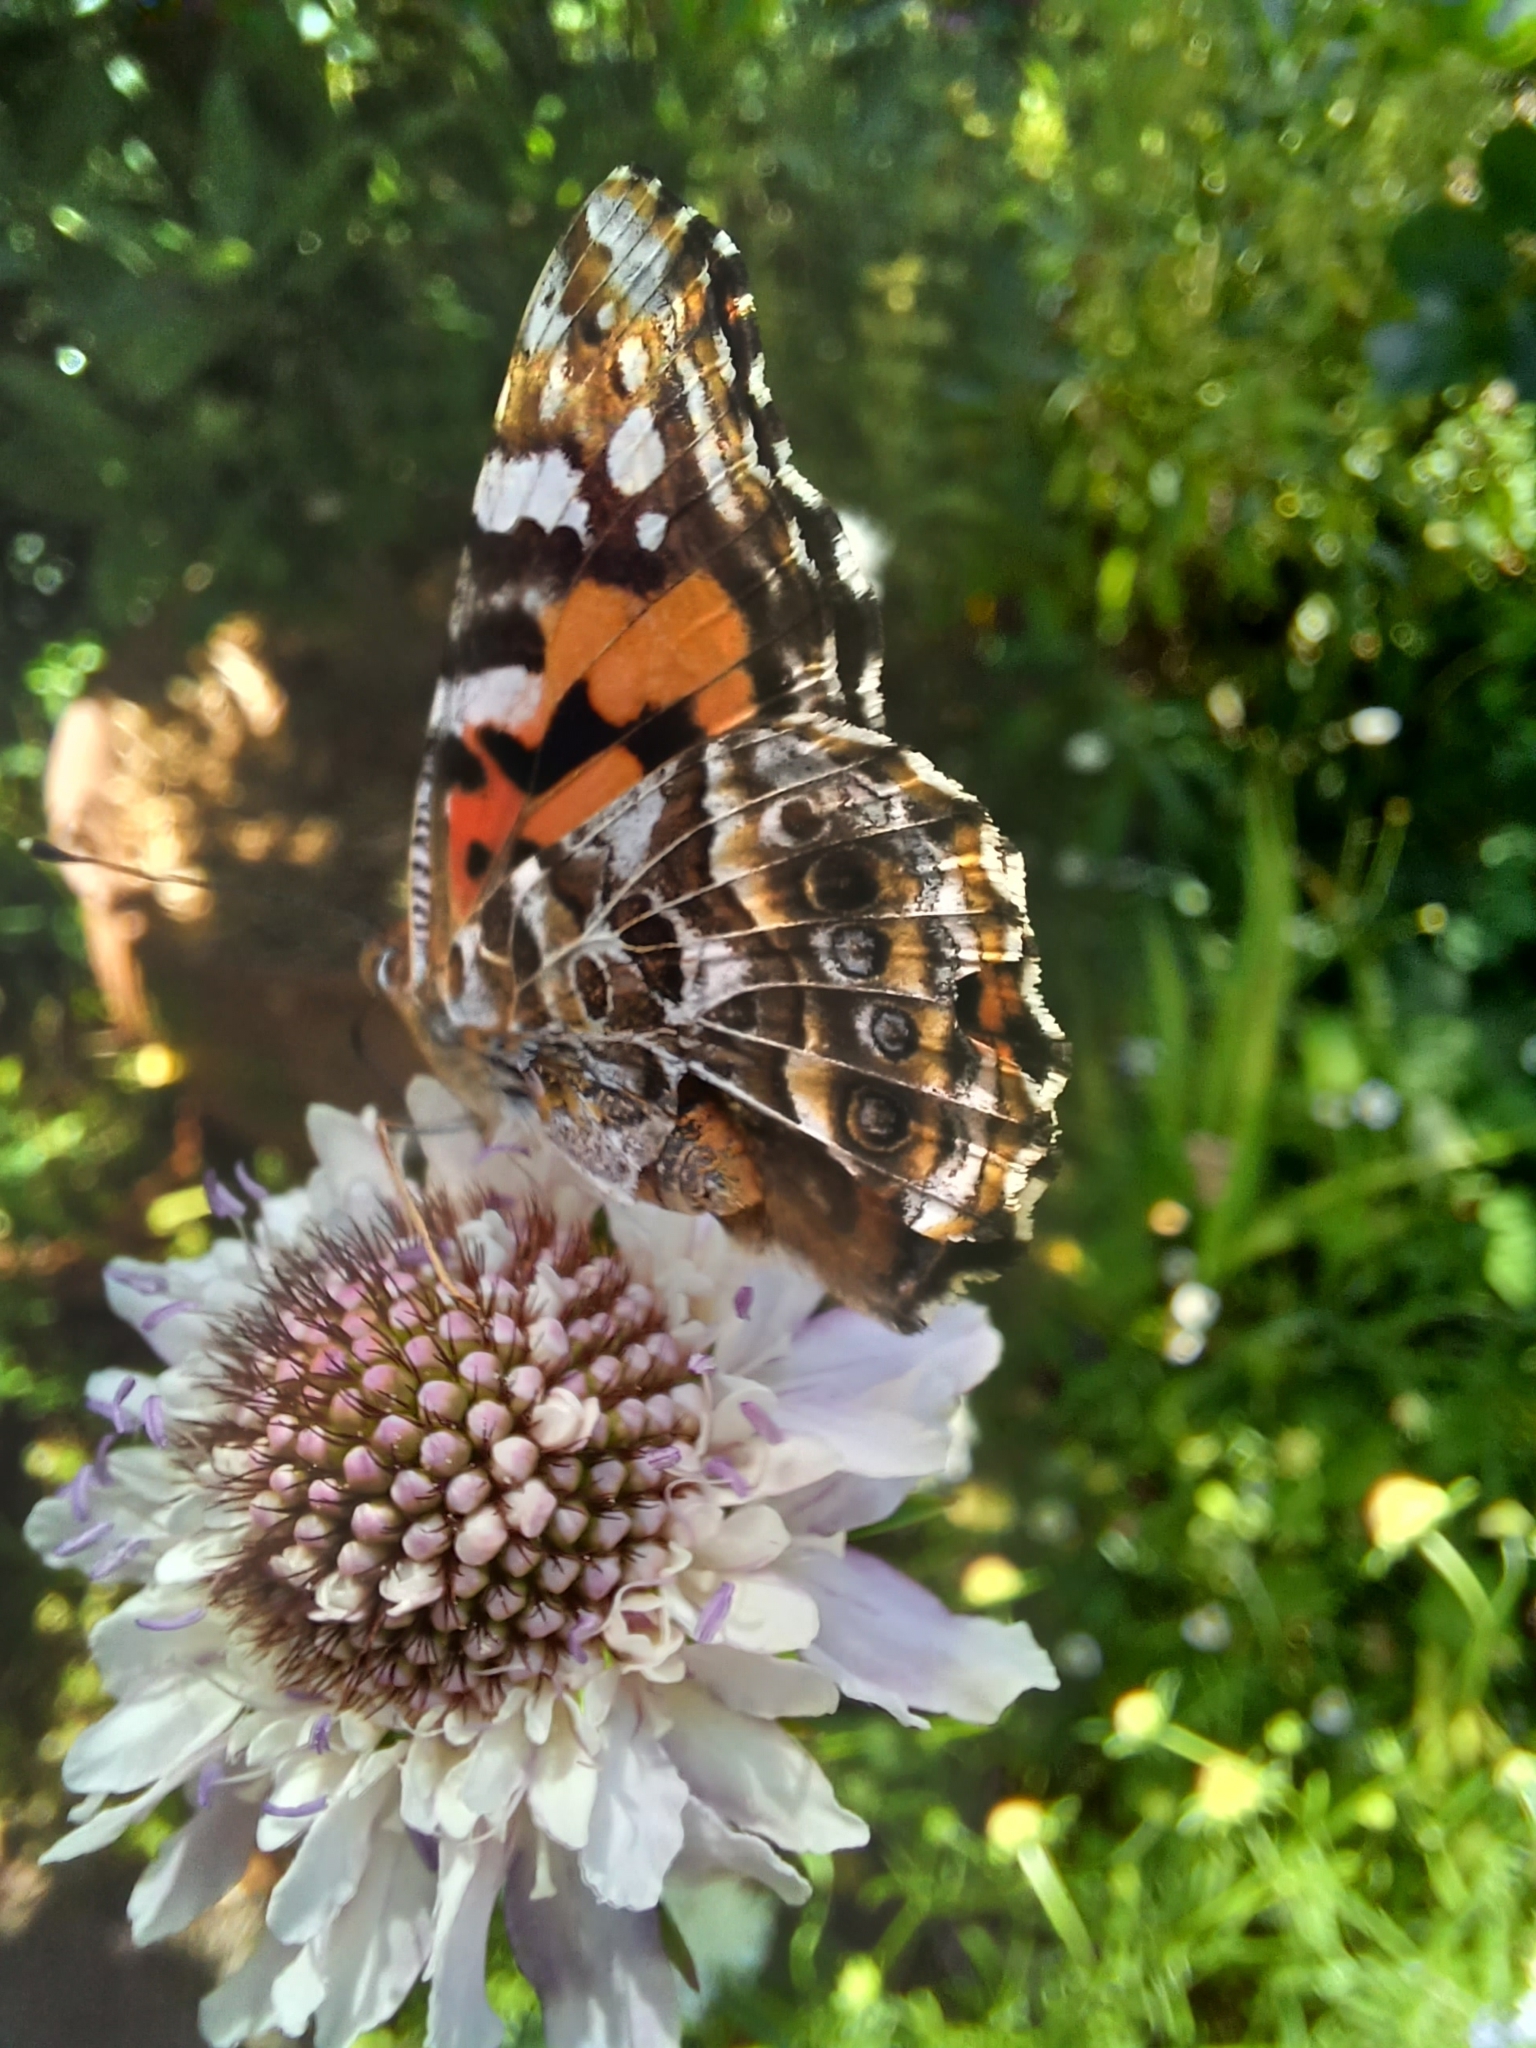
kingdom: Animalia
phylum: Arthropoda
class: Insecta
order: Lepidoptera
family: Nymphalidae
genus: Vanessa
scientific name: Vanessa kershawi
